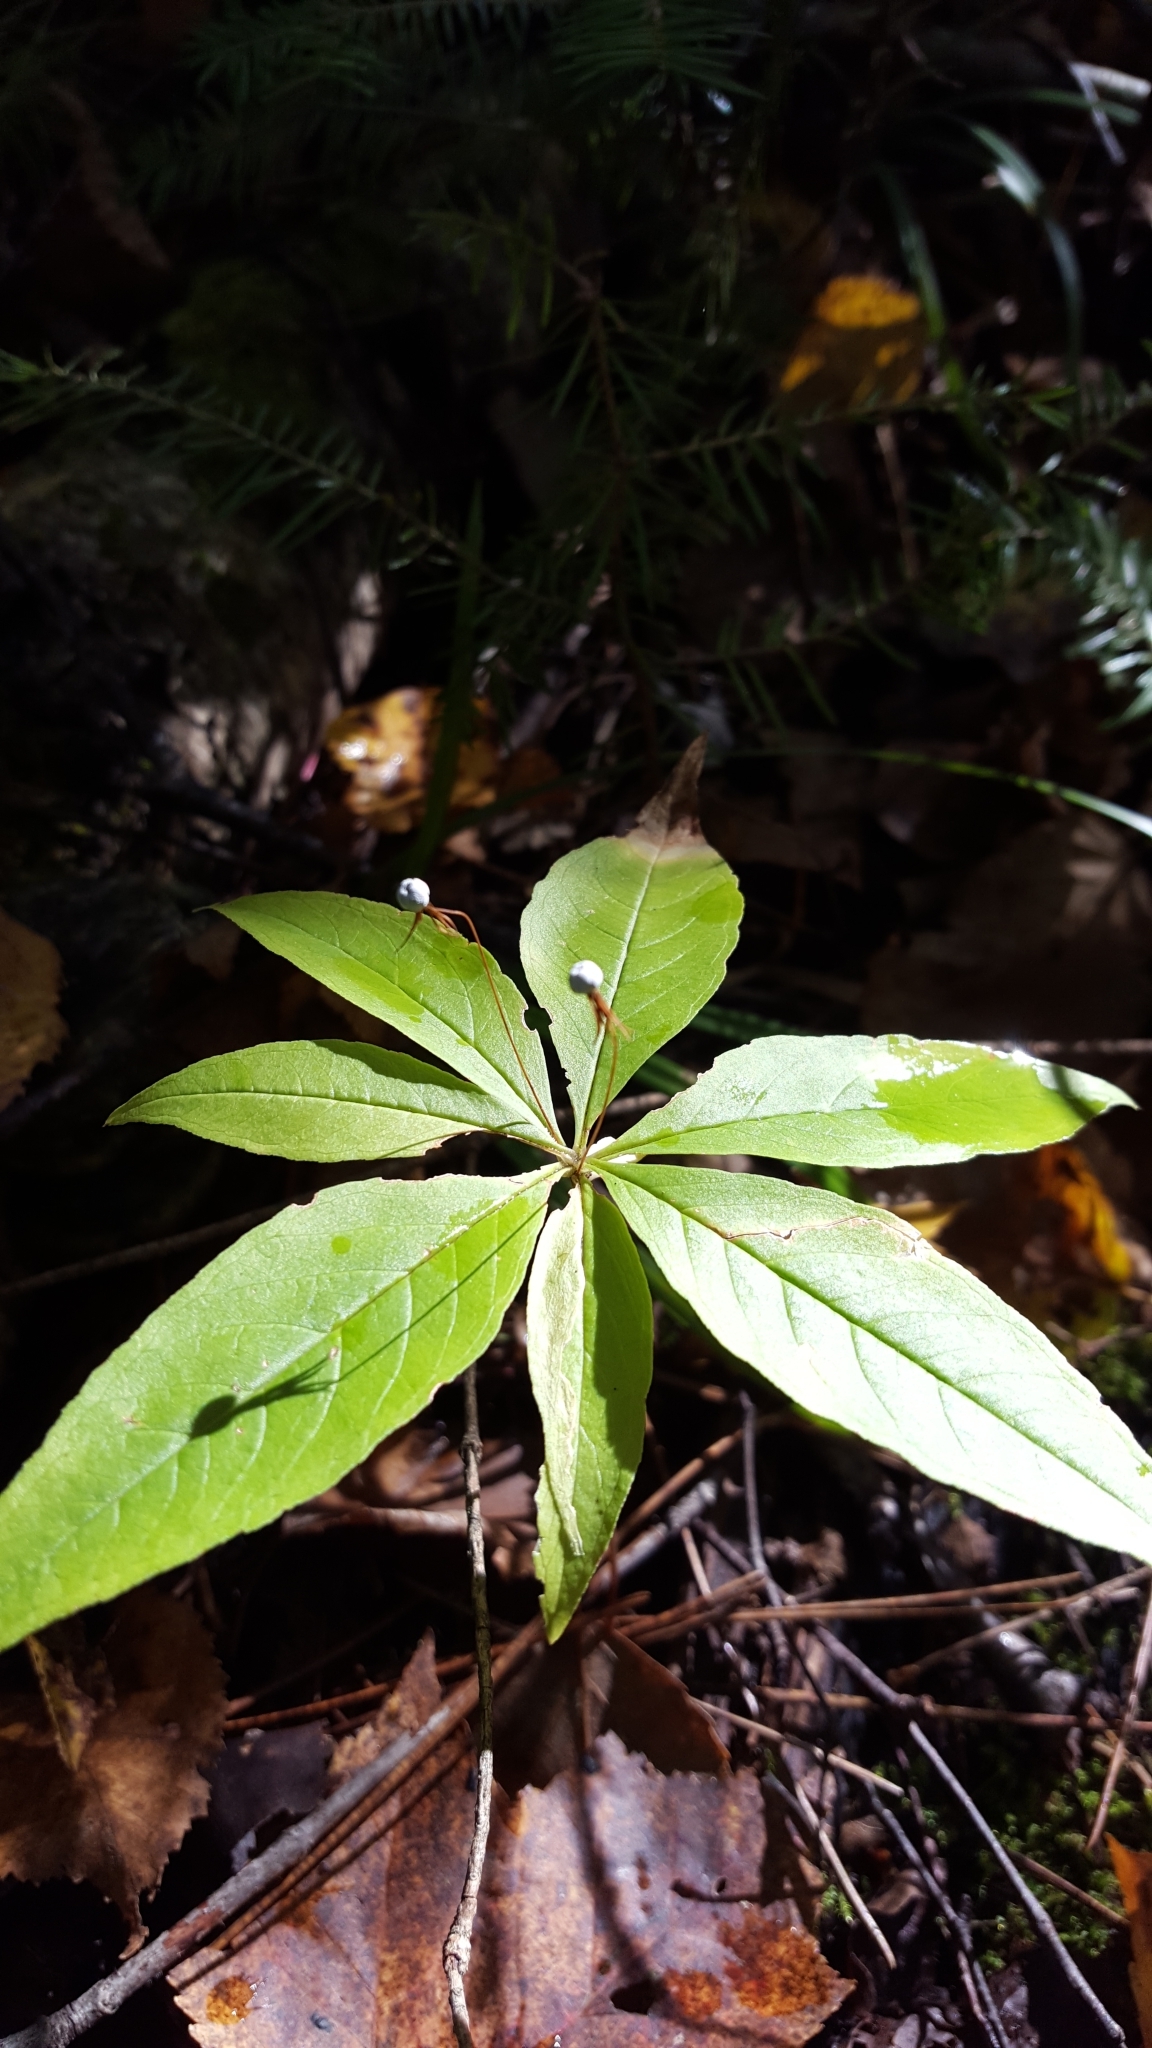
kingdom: Plantae
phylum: Tracheophyta
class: Magnoliopsida
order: Ericales
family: Primulaceae
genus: Lysimachia
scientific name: Lysimachia borealis
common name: American starflower
